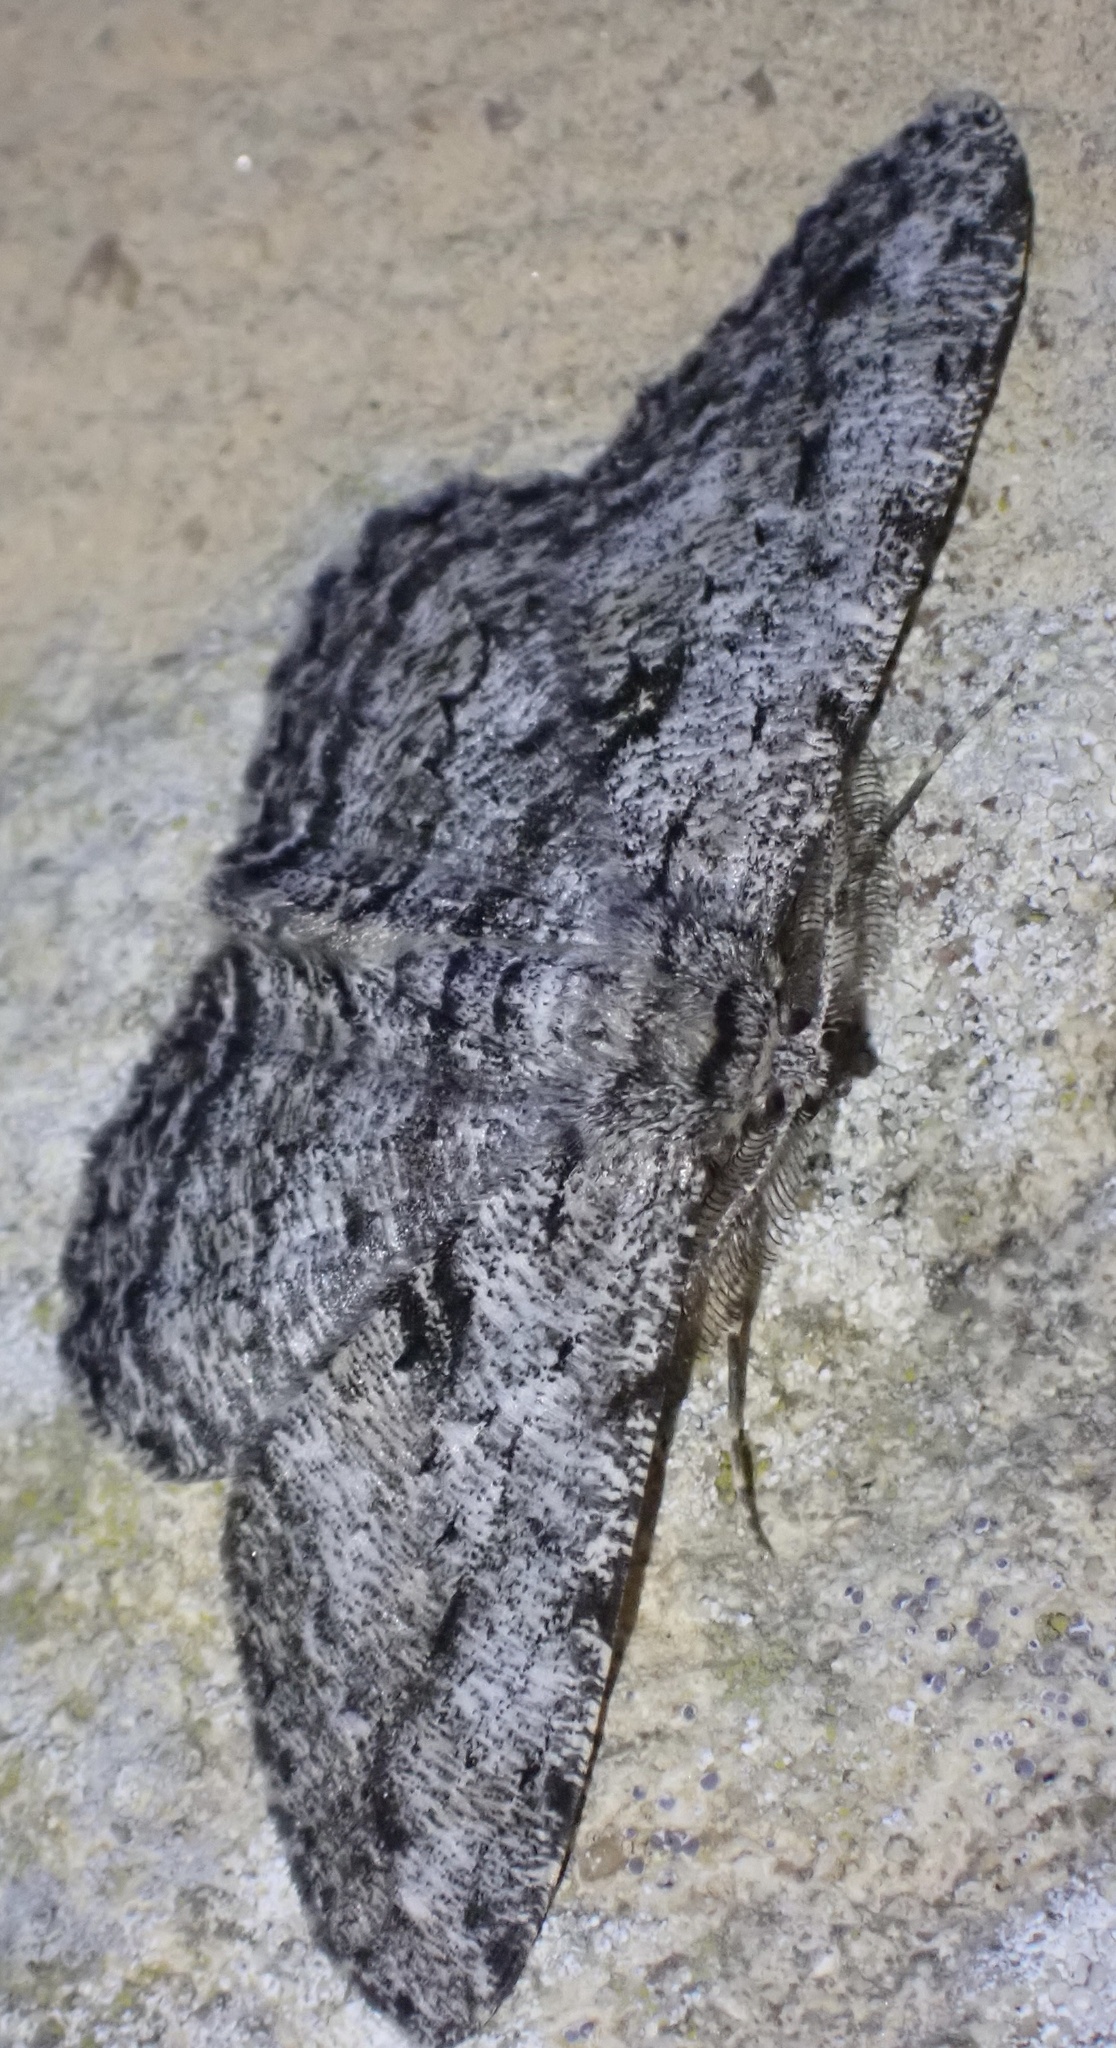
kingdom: Animalia
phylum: Arthropoda
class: Insecta
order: Lepidoptera
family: Geometridae
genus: Hypomecis
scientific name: Hypomecis roboraria
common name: Great oak beauty
